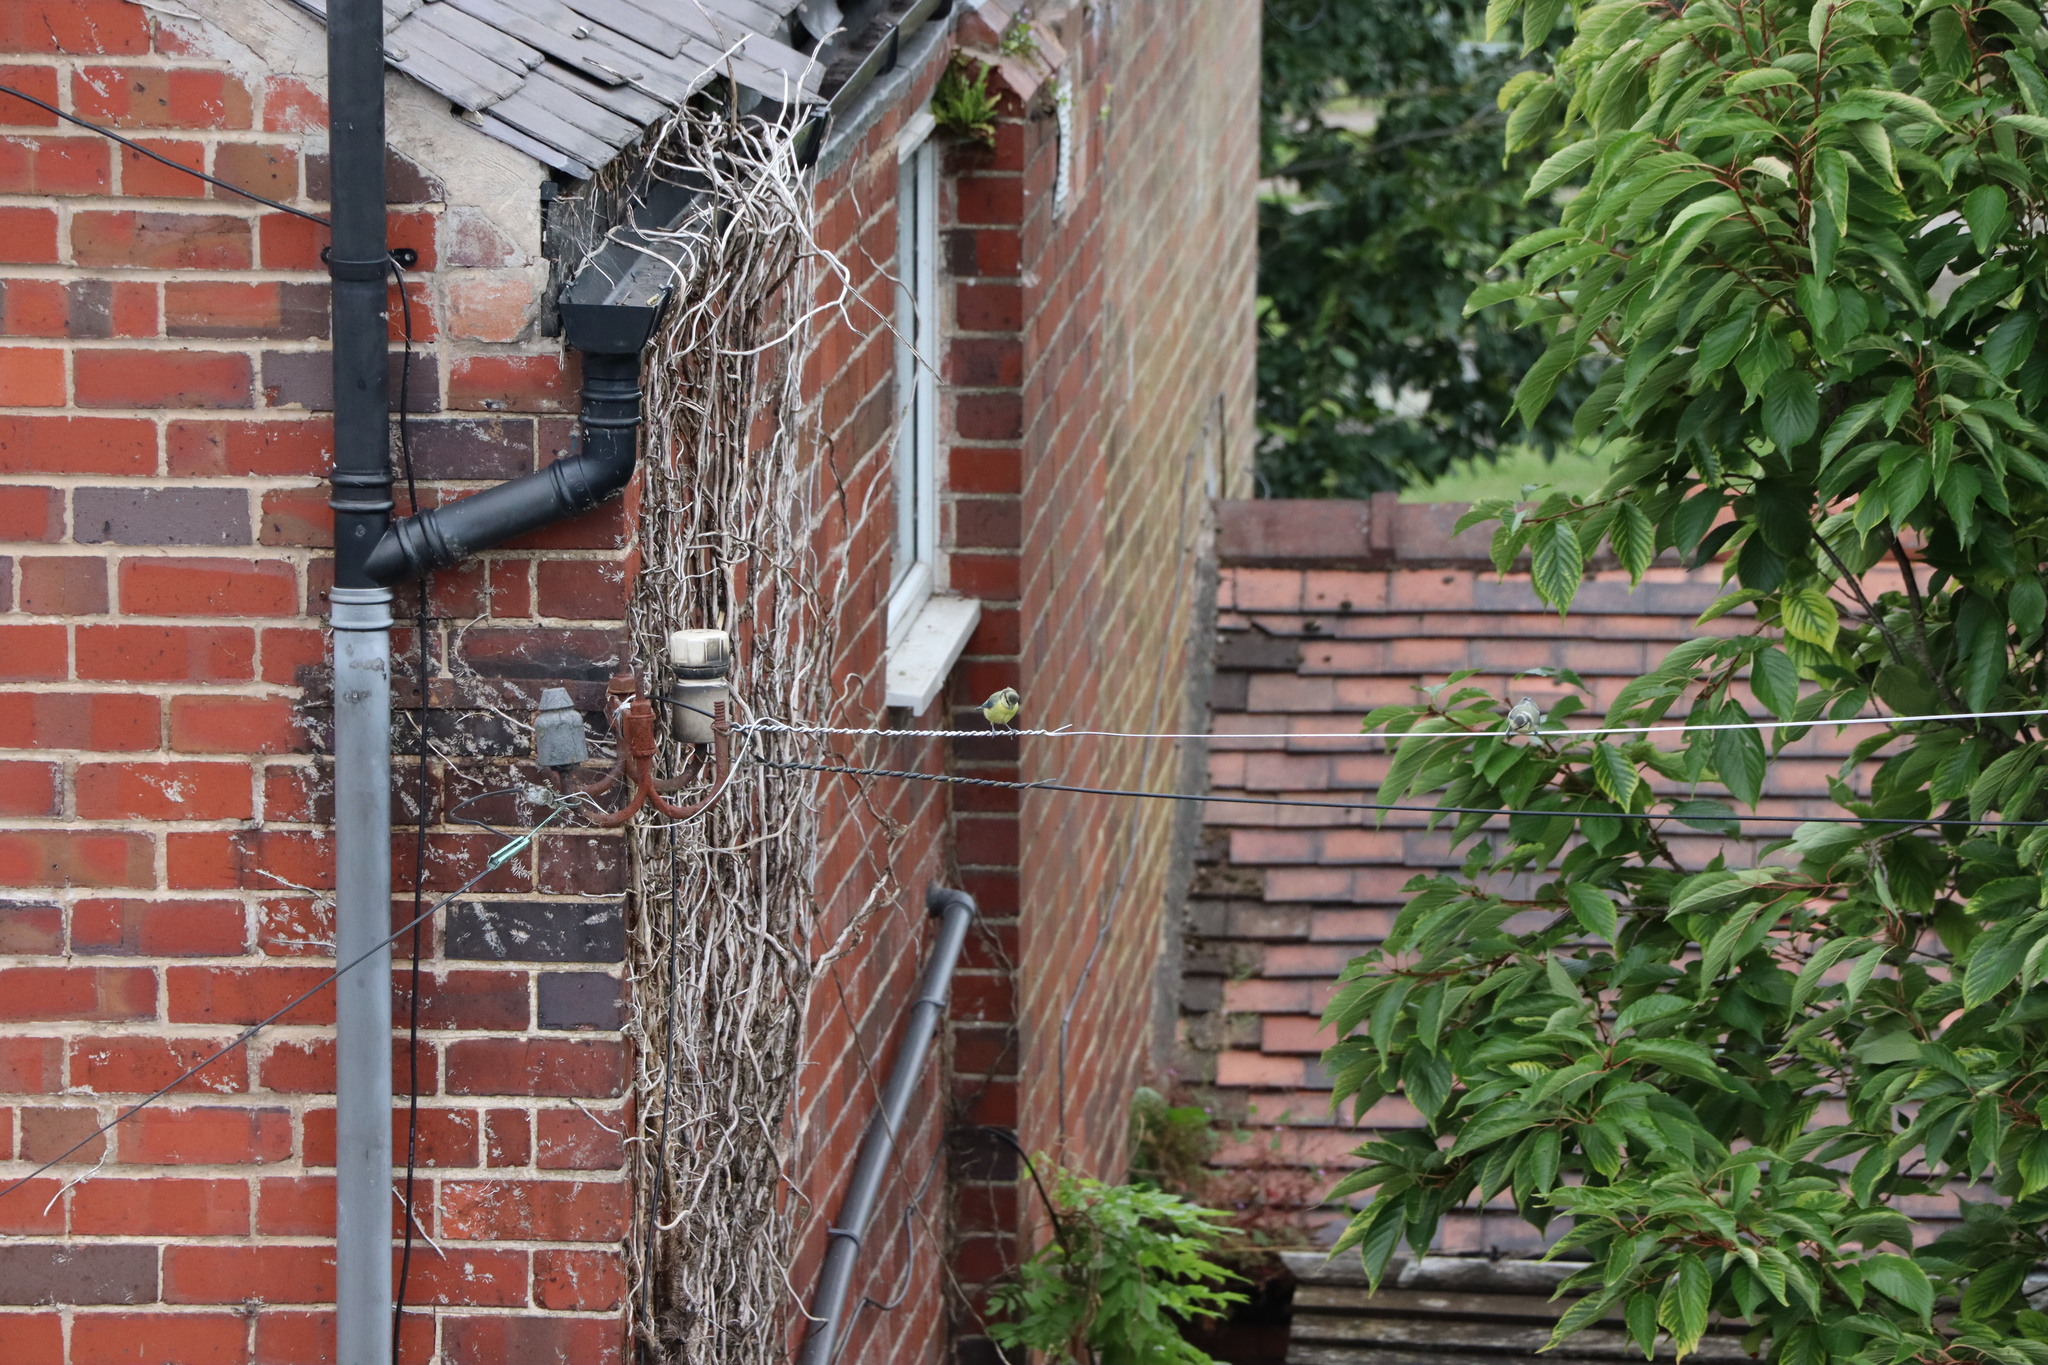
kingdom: Animalia
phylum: Chordata
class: Aves
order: Passeriformes
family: Paridae
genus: Cyanistes
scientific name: Cyanistes caeruleus
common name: Eurasian blue tit
